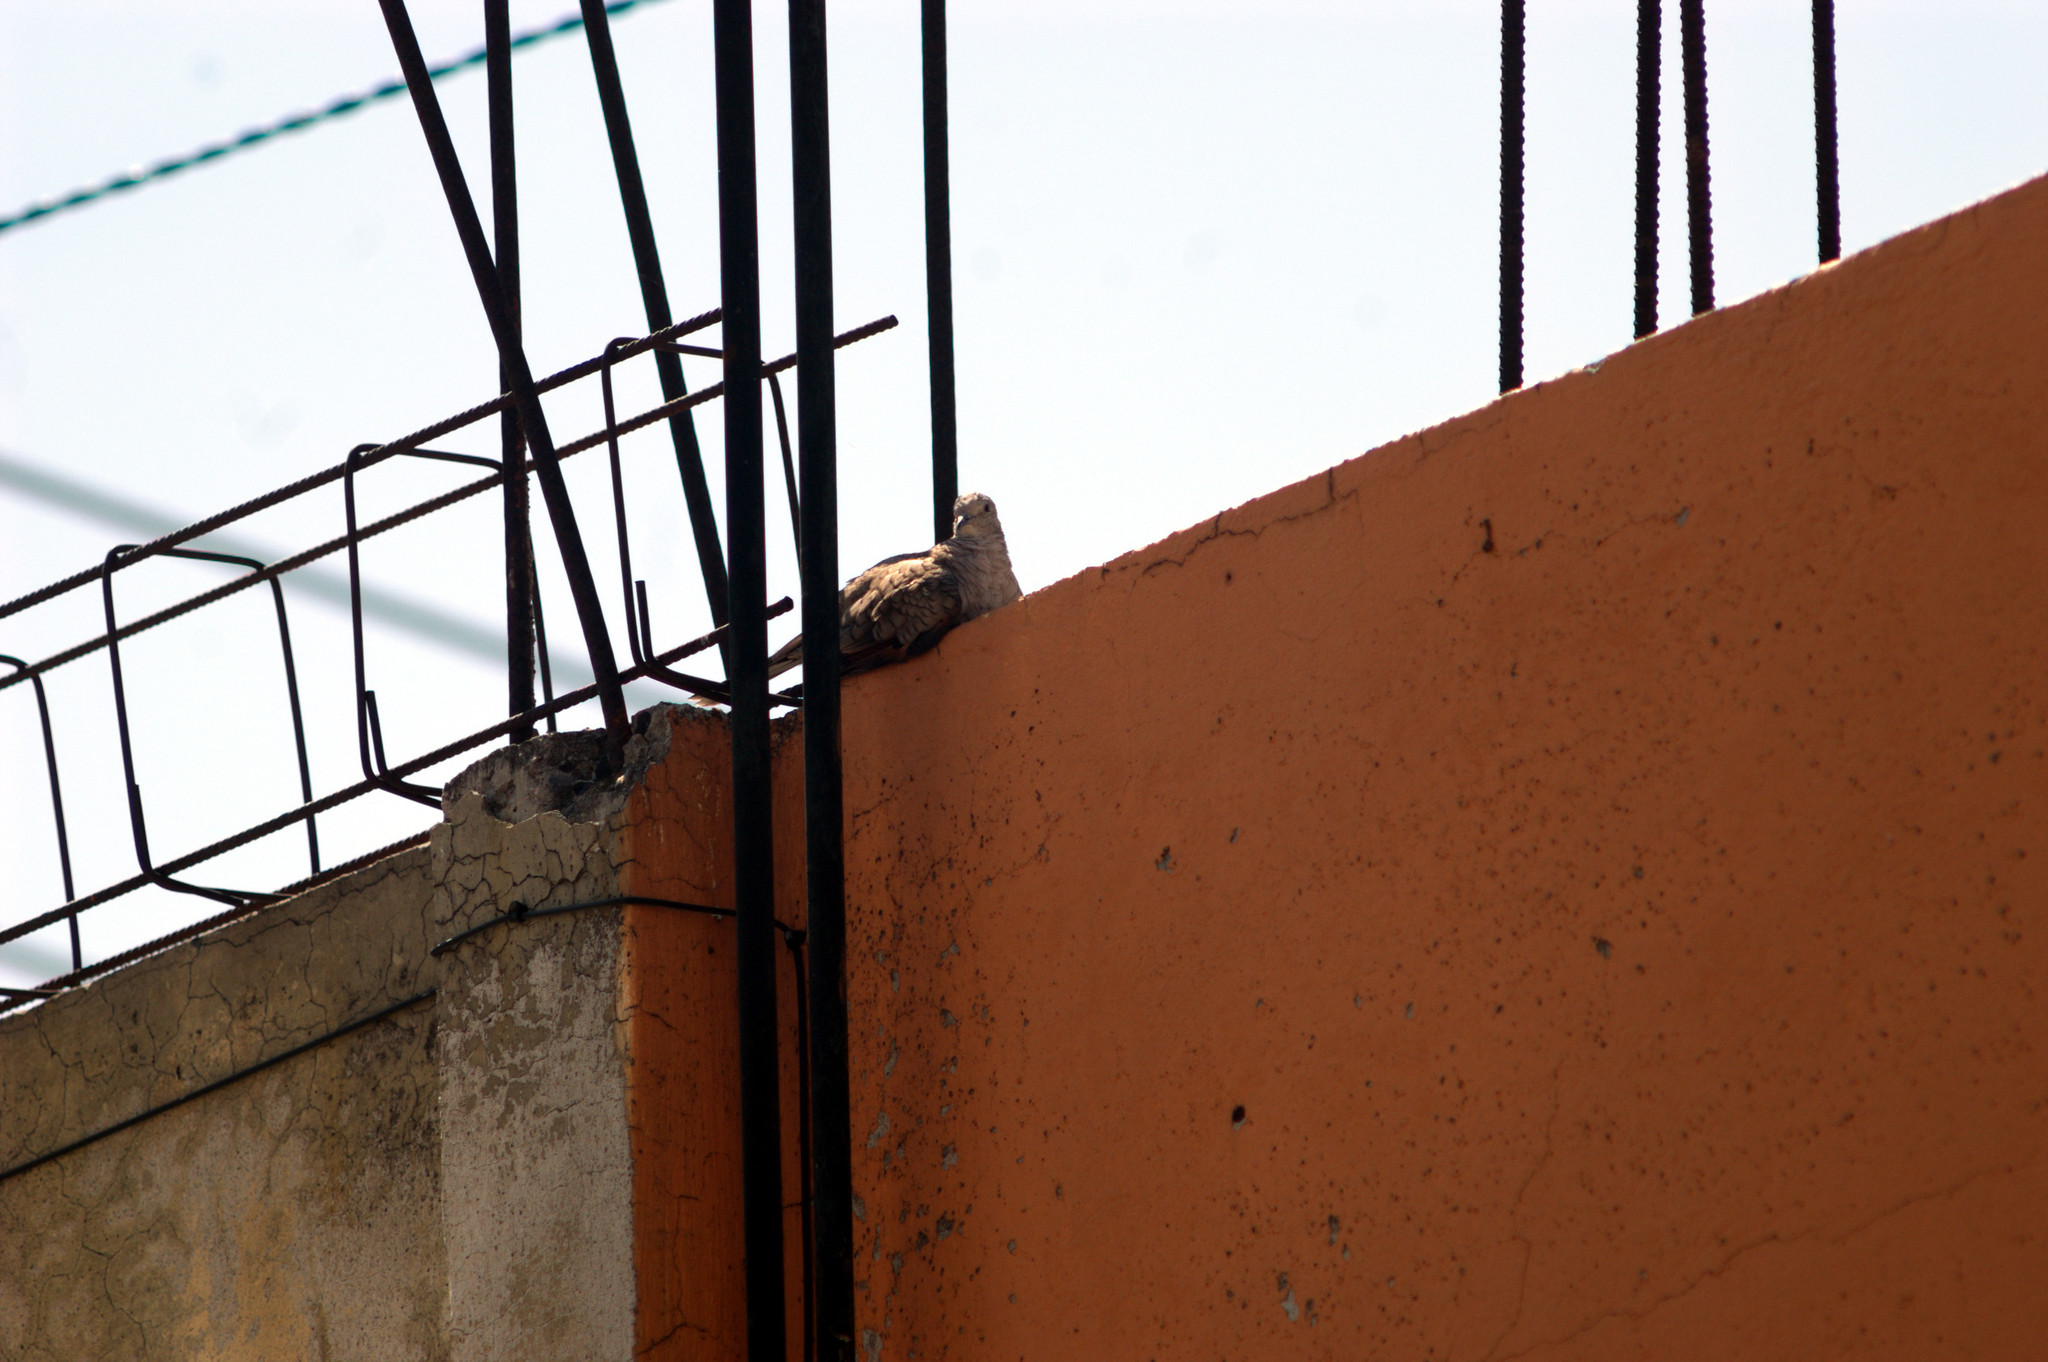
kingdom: Animalia
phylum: Chordata
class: Aves
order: Columbiformes
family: Columbidae
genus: Columbina
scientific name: Columbina inca
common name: Inca dove
